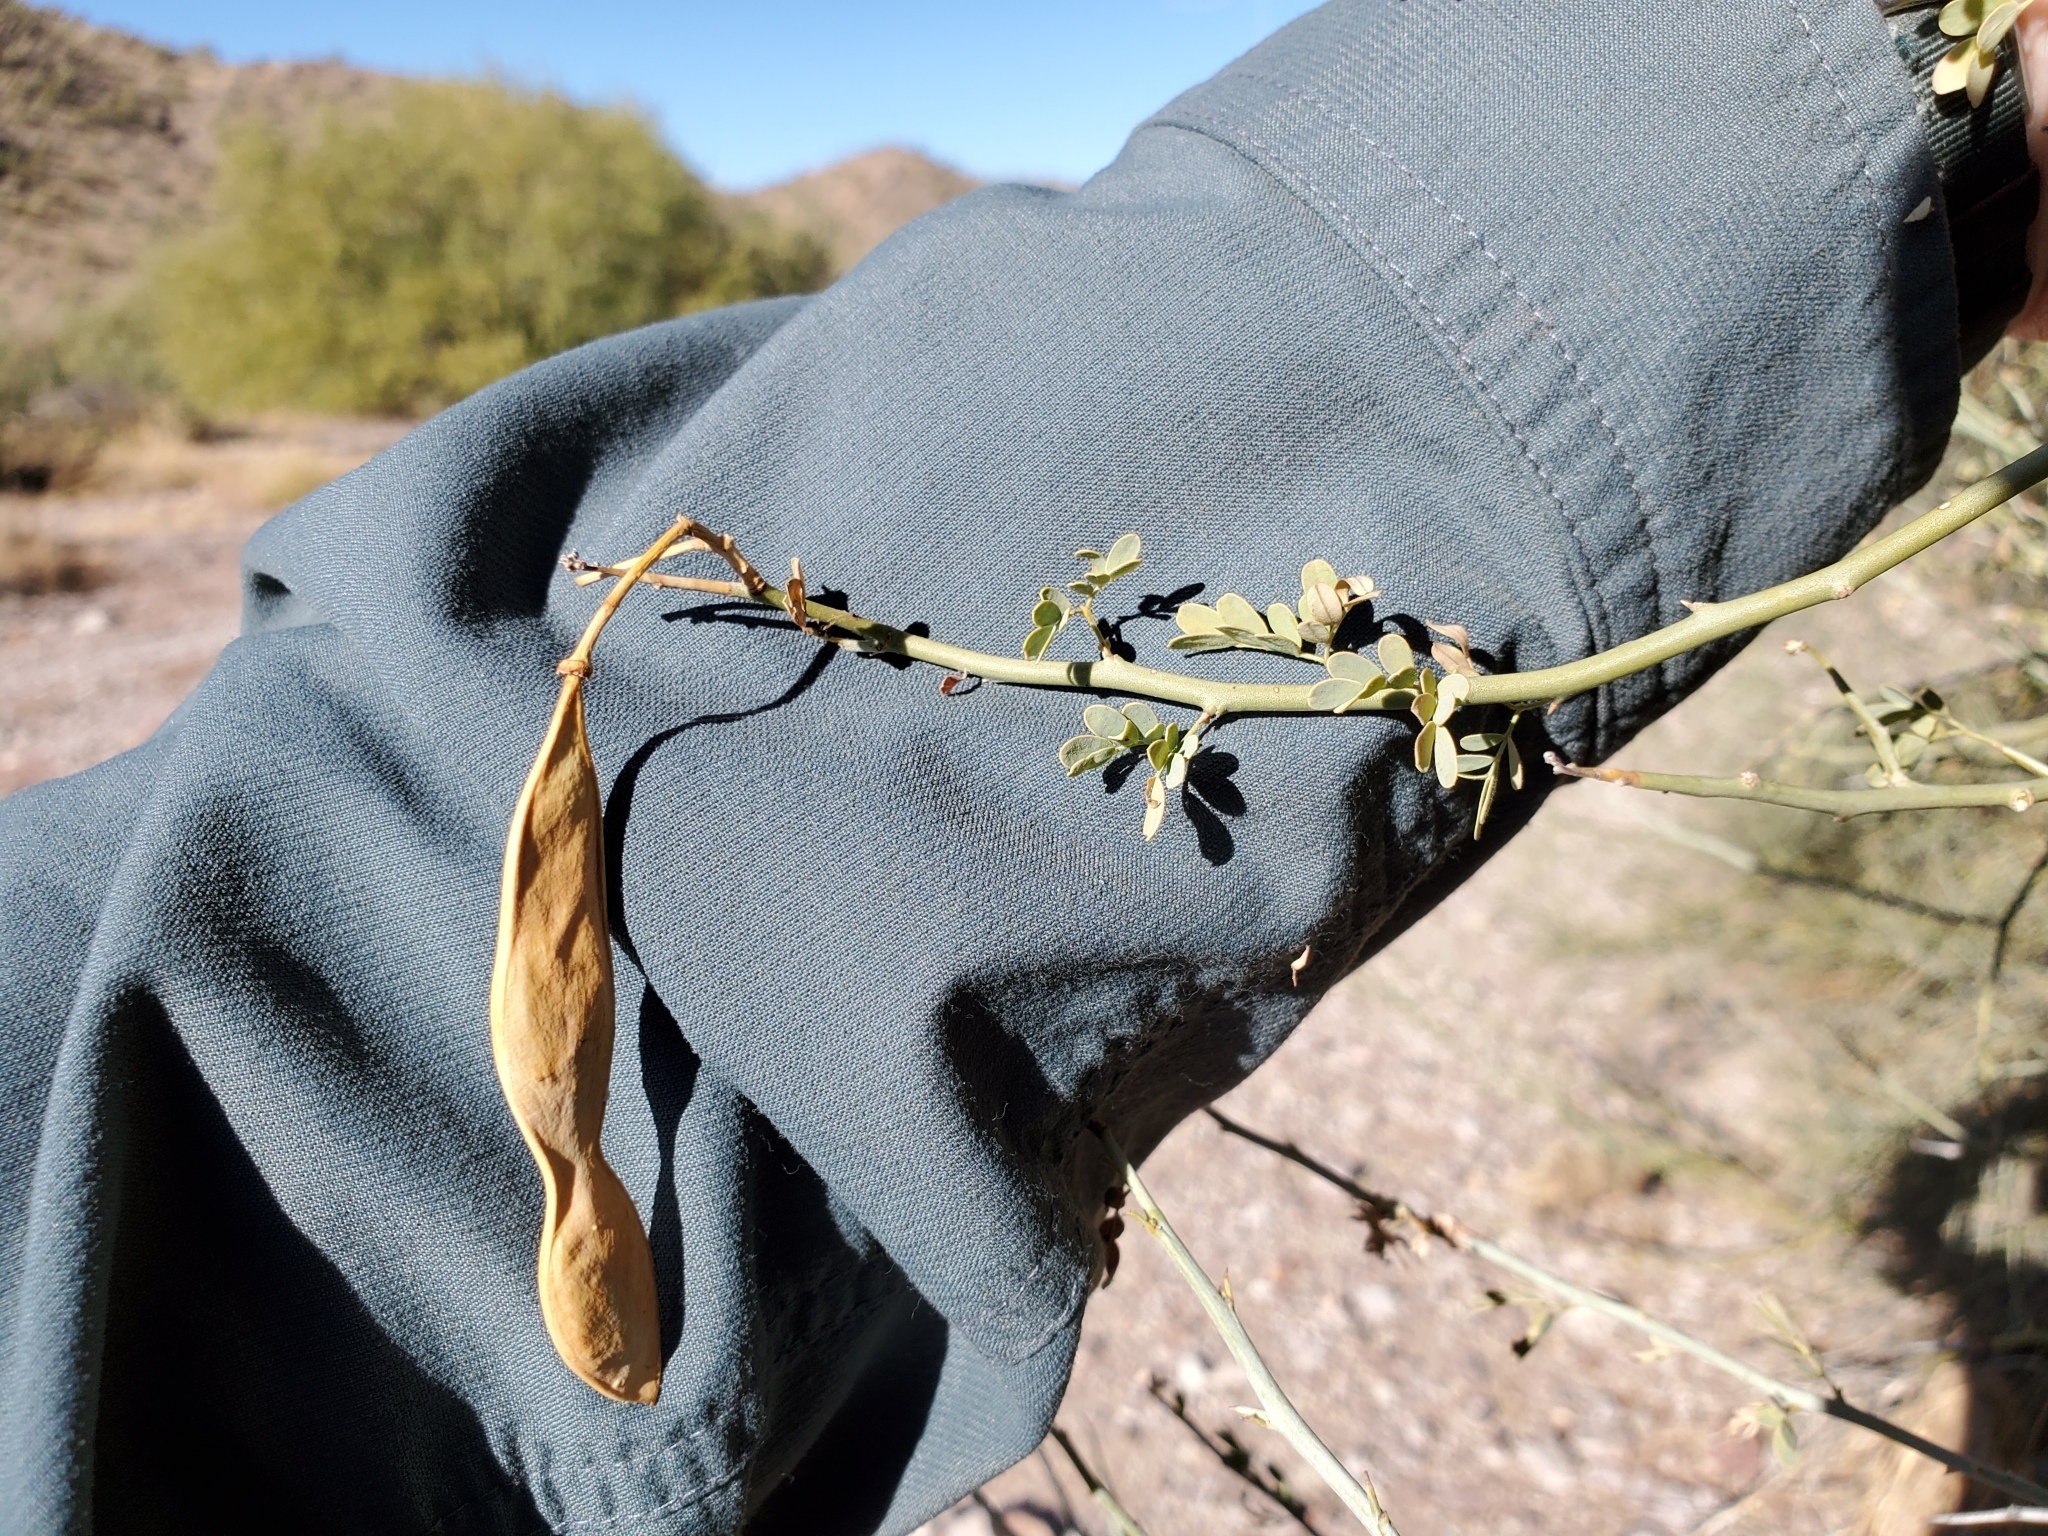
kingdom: Plantae
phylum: Tracheophyta
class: Magnoliopsida
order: Fabales
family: Fabaceae
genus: Parkinsonia
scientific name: Parkinsonia florida
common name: Blue paloverde
